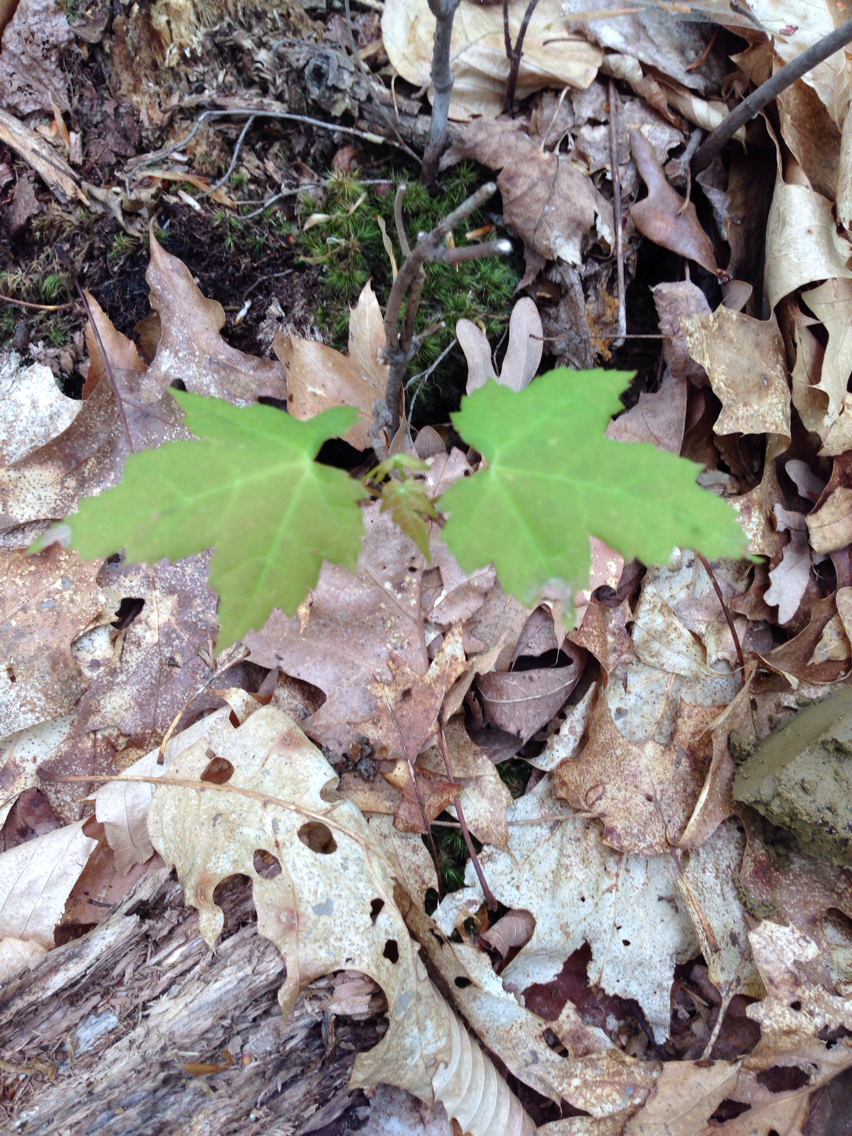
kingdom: Plantae
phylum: Tracheophyta
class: Magnoliopsida
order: Sapindales
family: Sapindaceae
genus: Acer
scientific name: Acer rubrum
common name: Red maple
